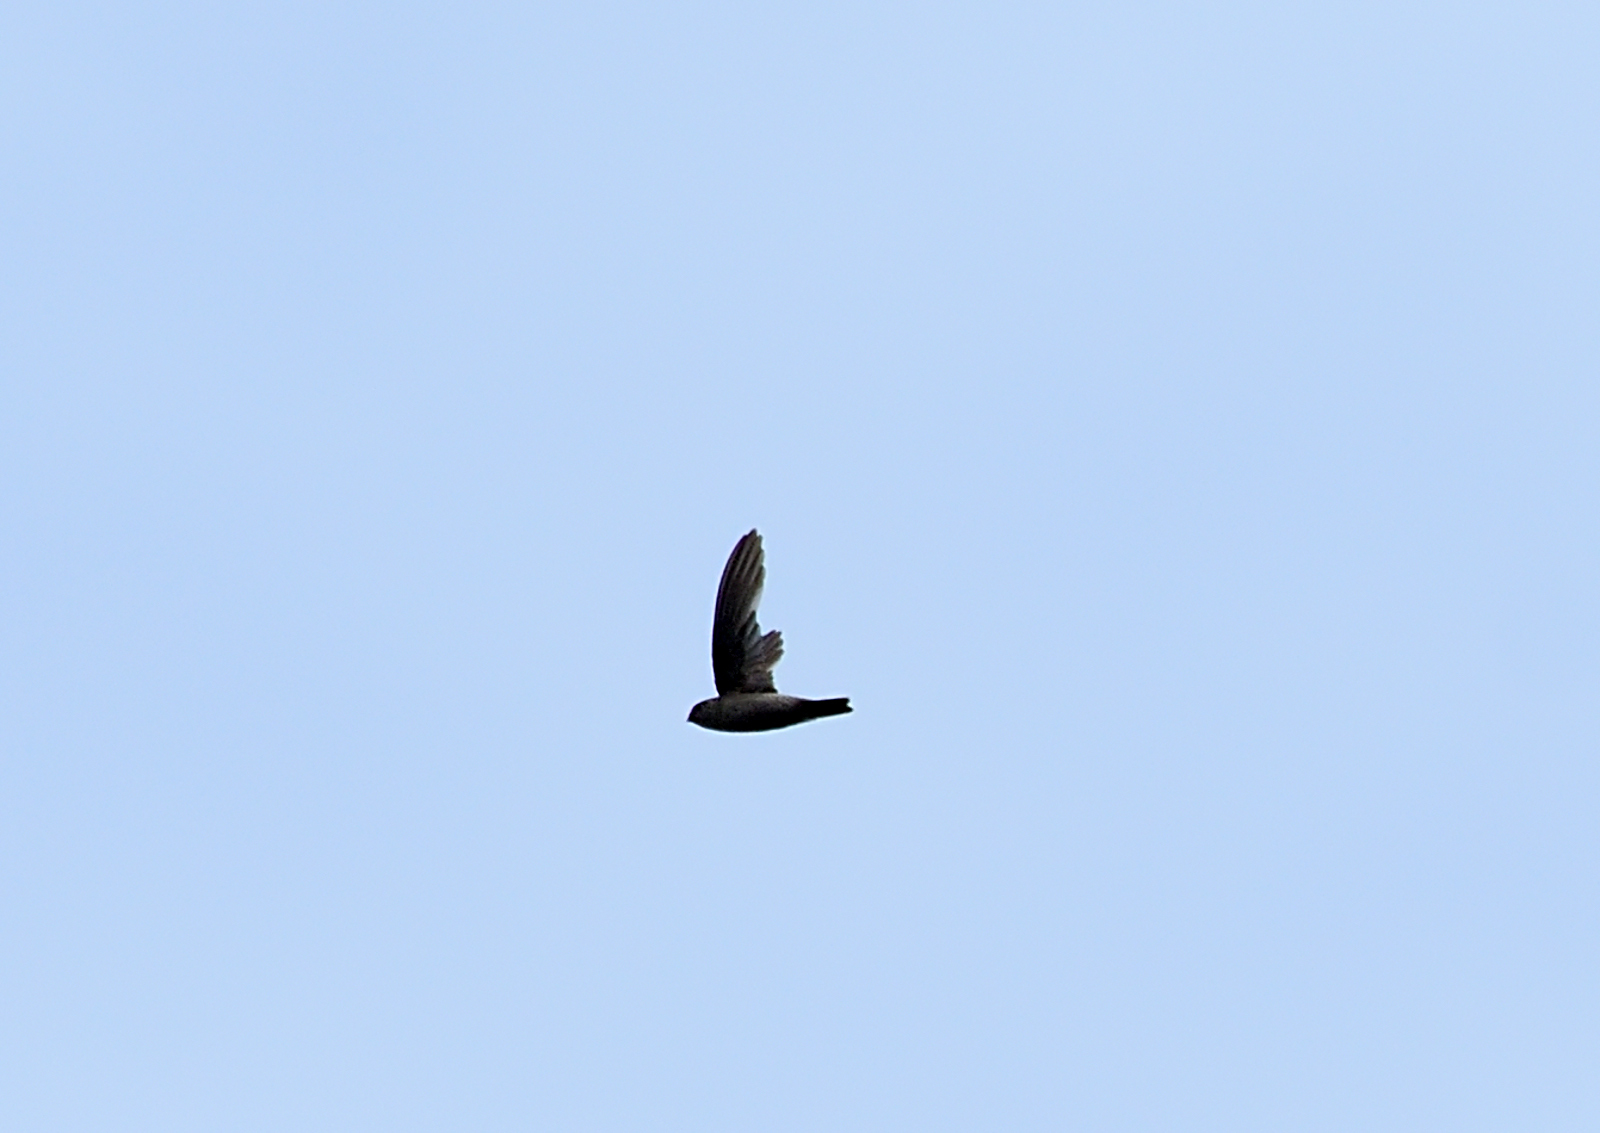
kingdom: Animalia
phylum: Chordata
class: Aves
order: Apodiformes
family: Apodidae
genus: Aerodramus
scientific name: Aerodramus unicolor
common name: Indian swiftlet
